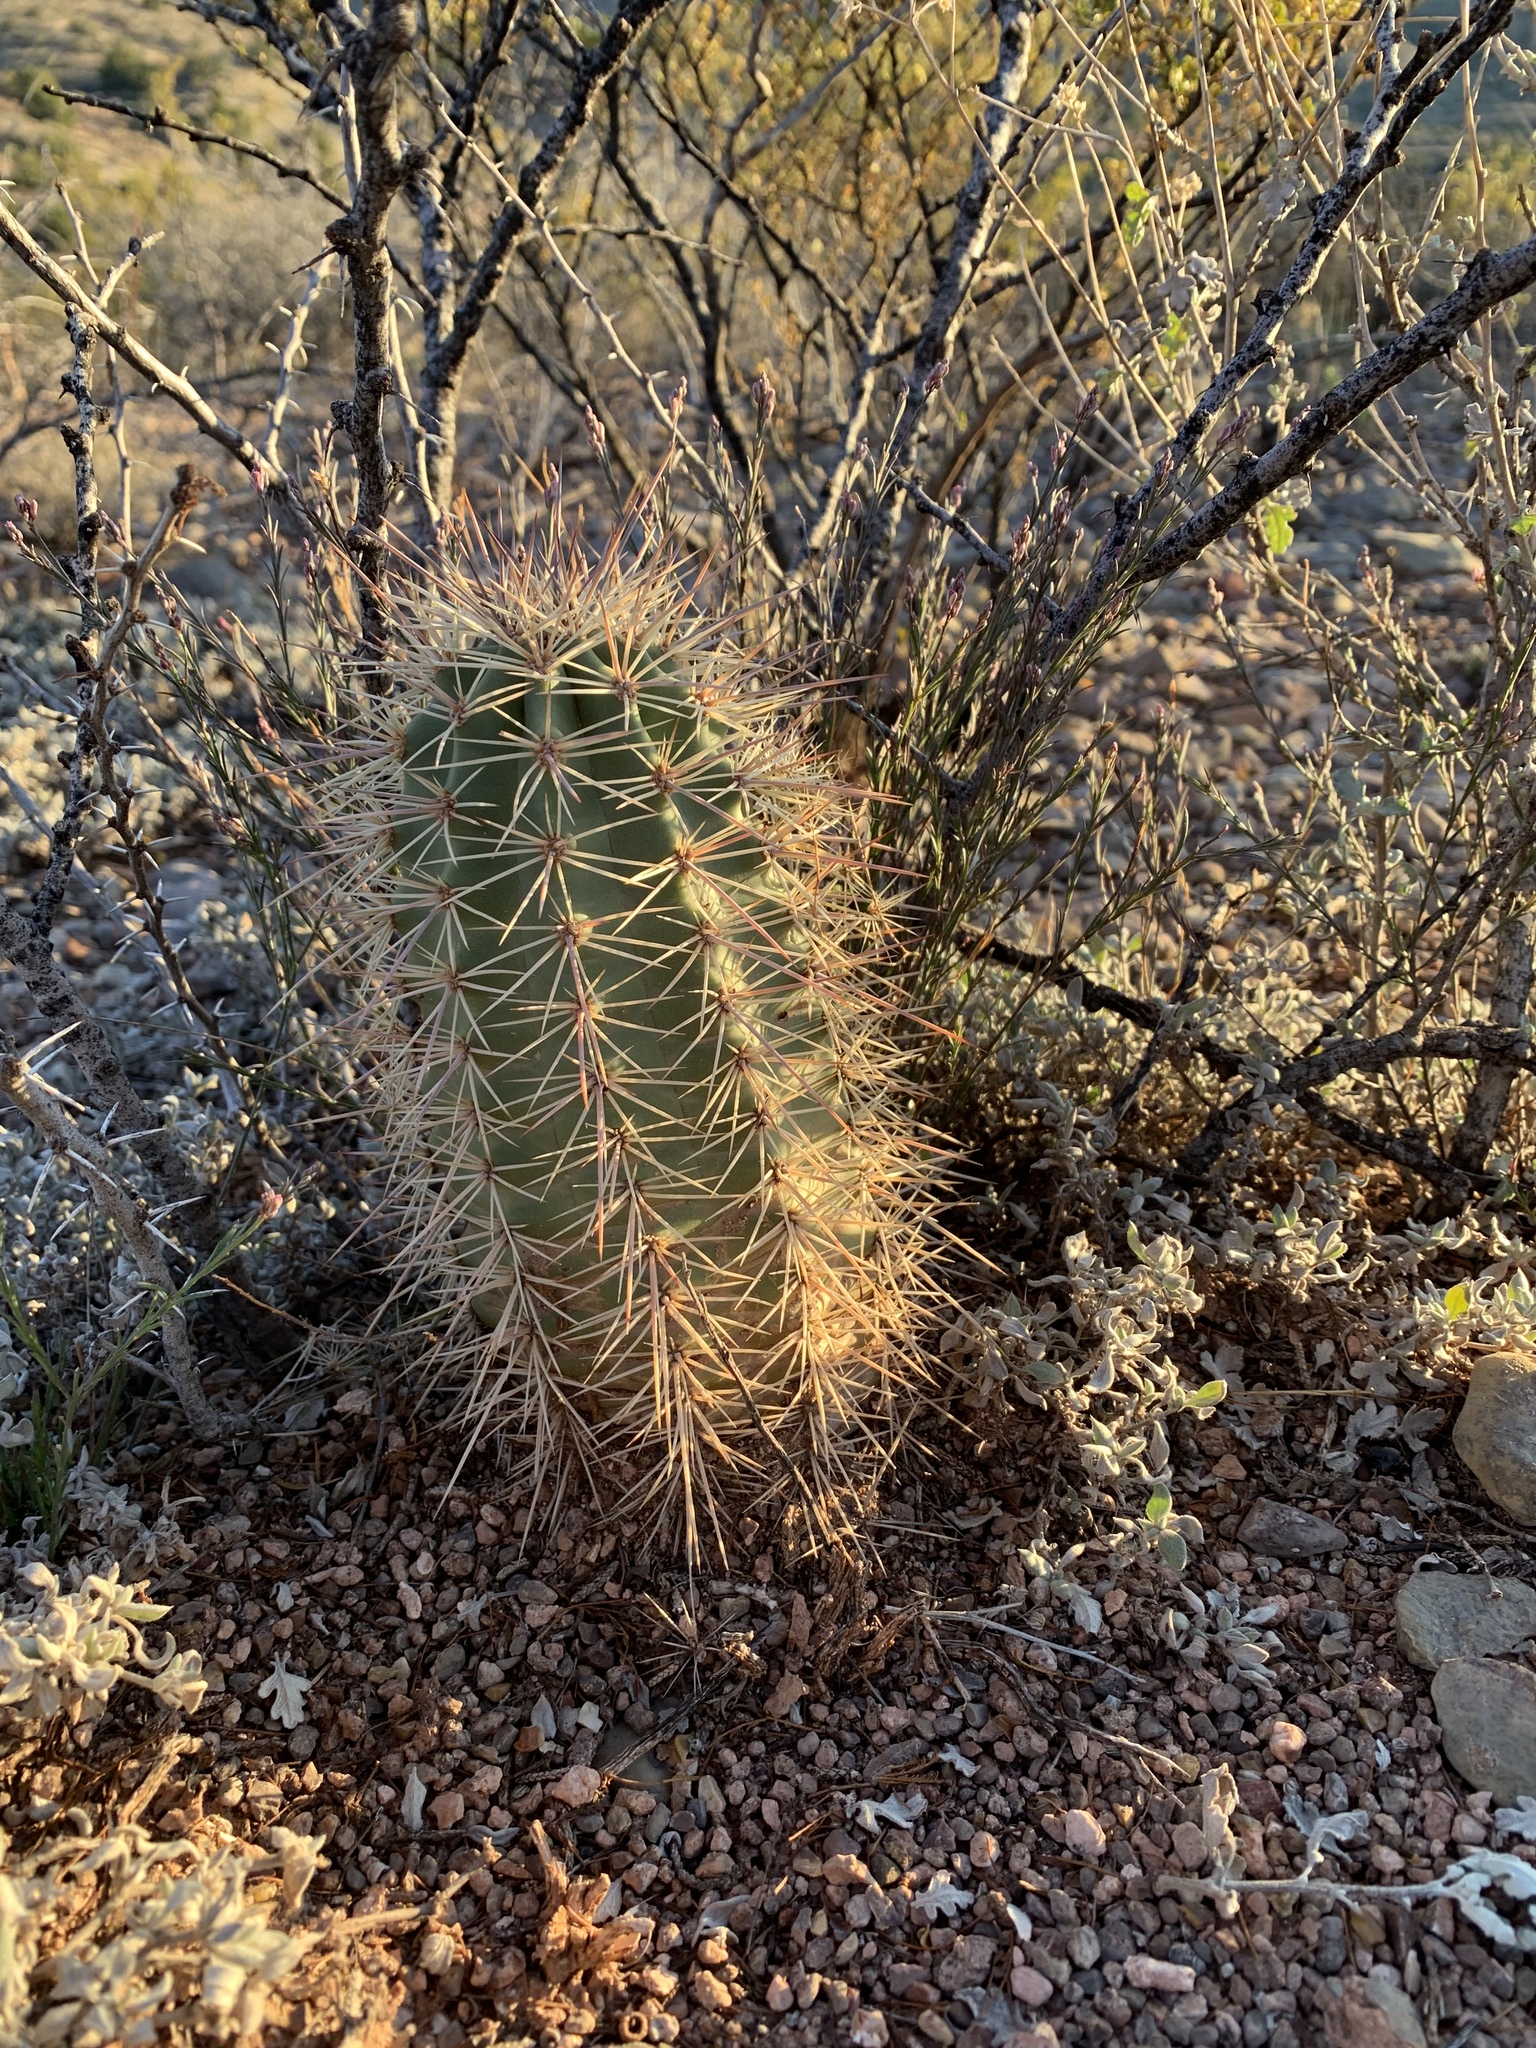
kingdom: Plantae
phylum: Tracheophyta
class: Magnoliopsida
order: Caryophyllales
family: Cactaceae
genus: Echinocereus
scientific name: Echinocereus coccineus
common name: Scarlet hedgehog cactus
